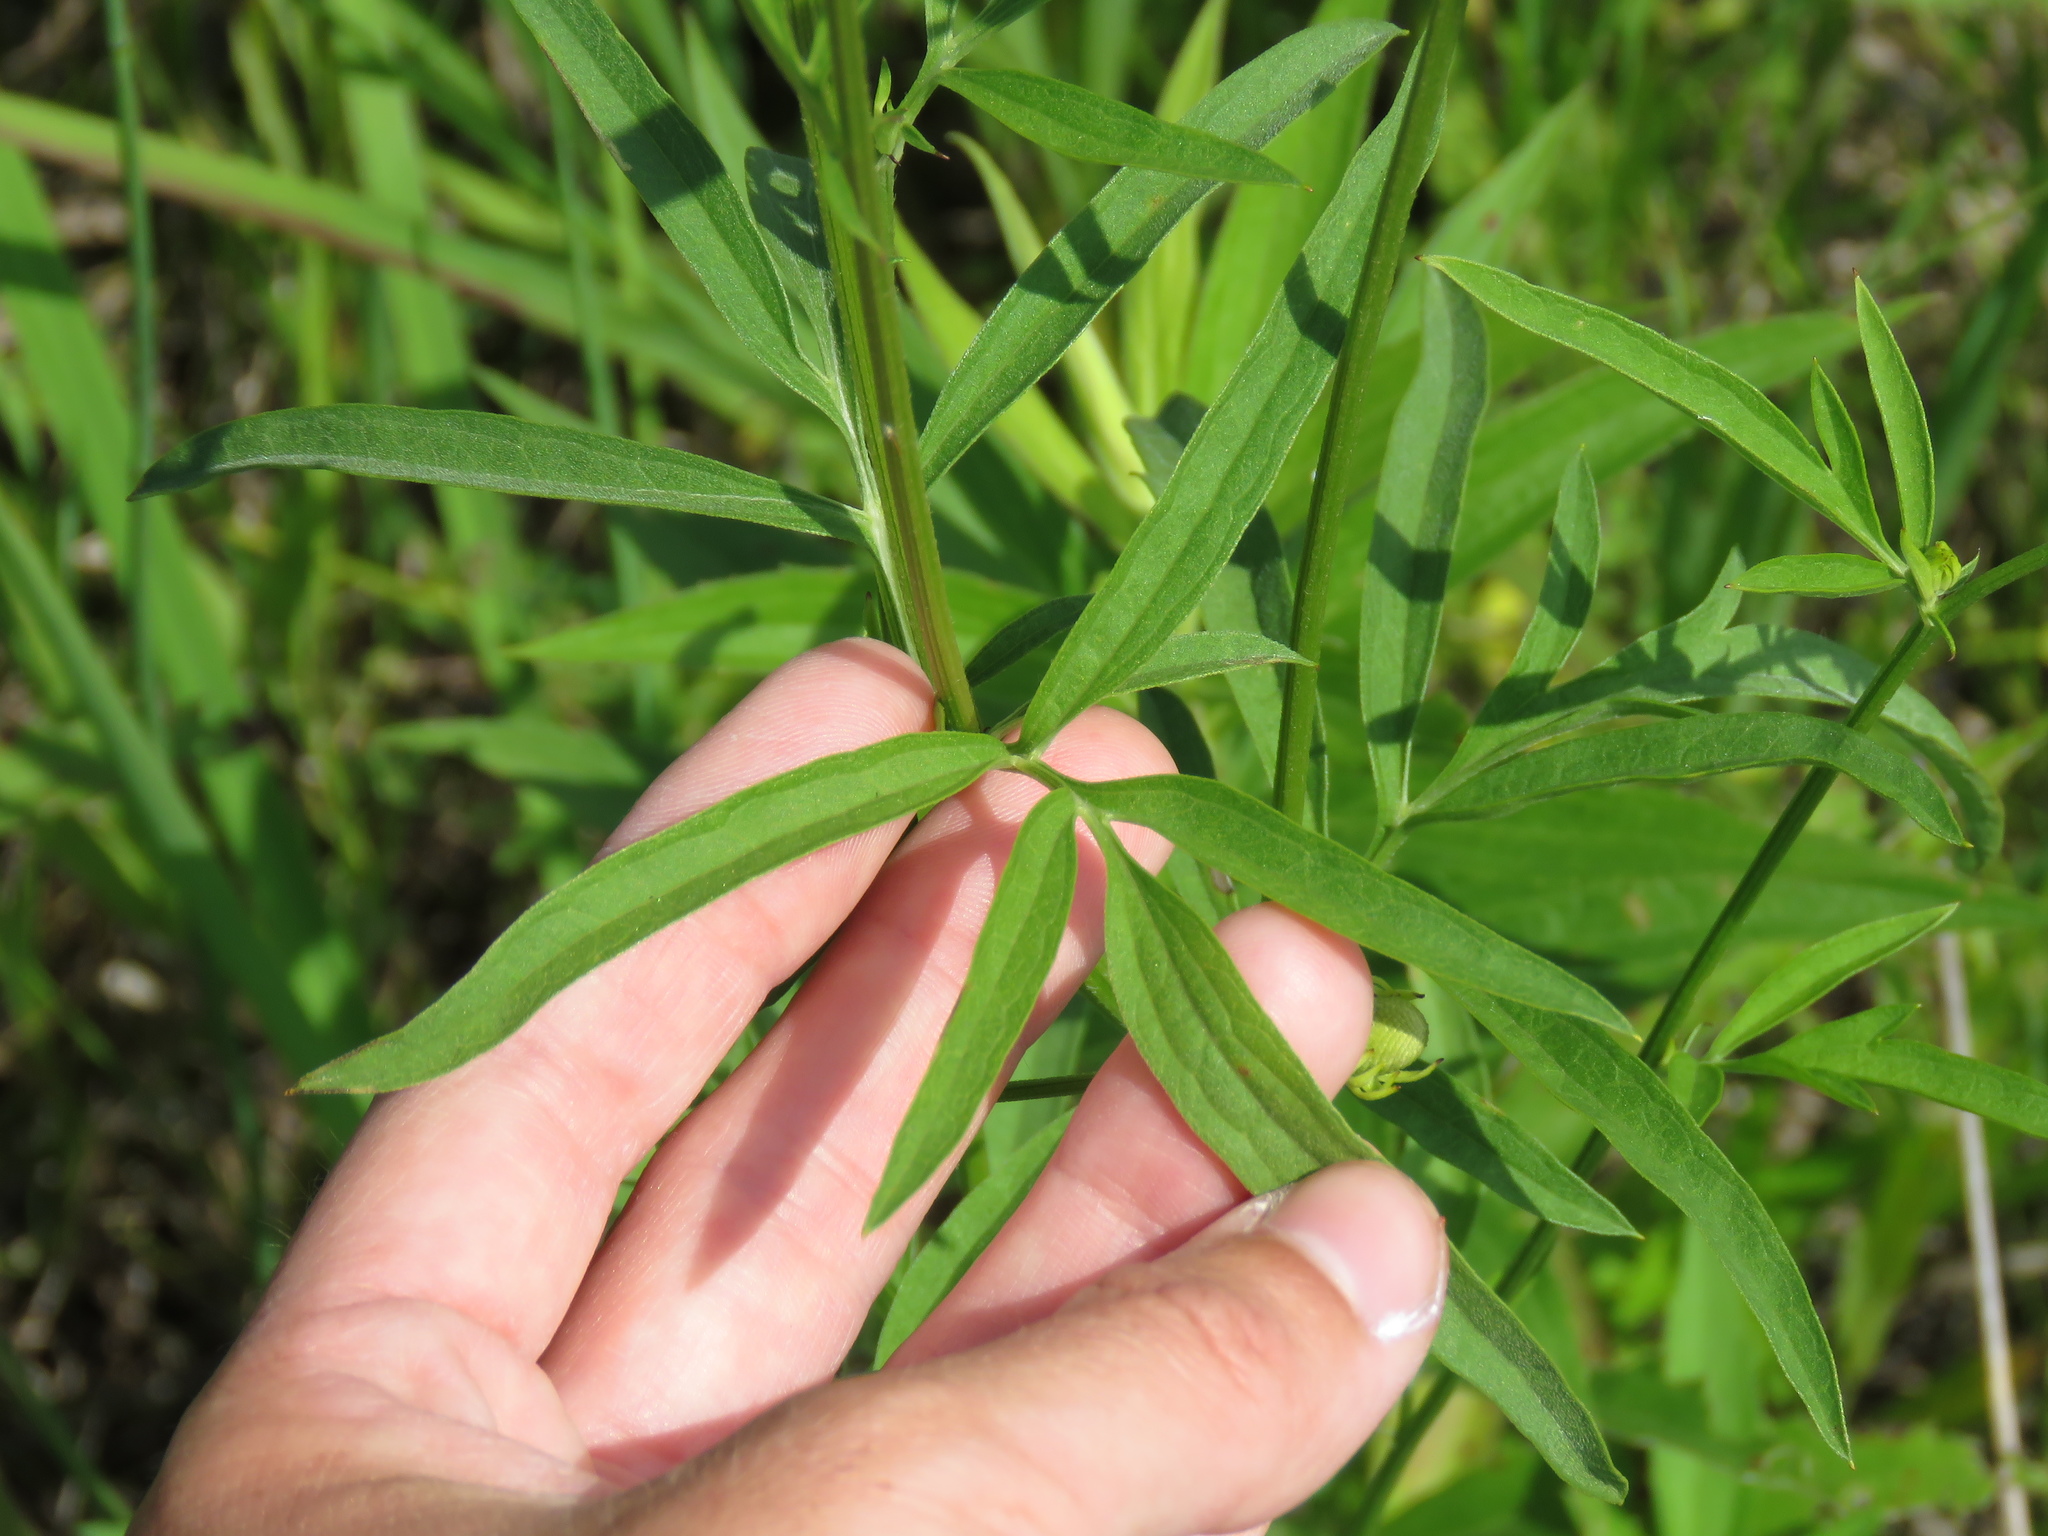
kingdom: Plantae
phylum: Tracheophyta
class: Magnoliopsida
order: Asterales
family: Asteraceae
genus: Ratibida
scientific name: Ratibida pinnata
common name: Drooping prairie-coneflower
